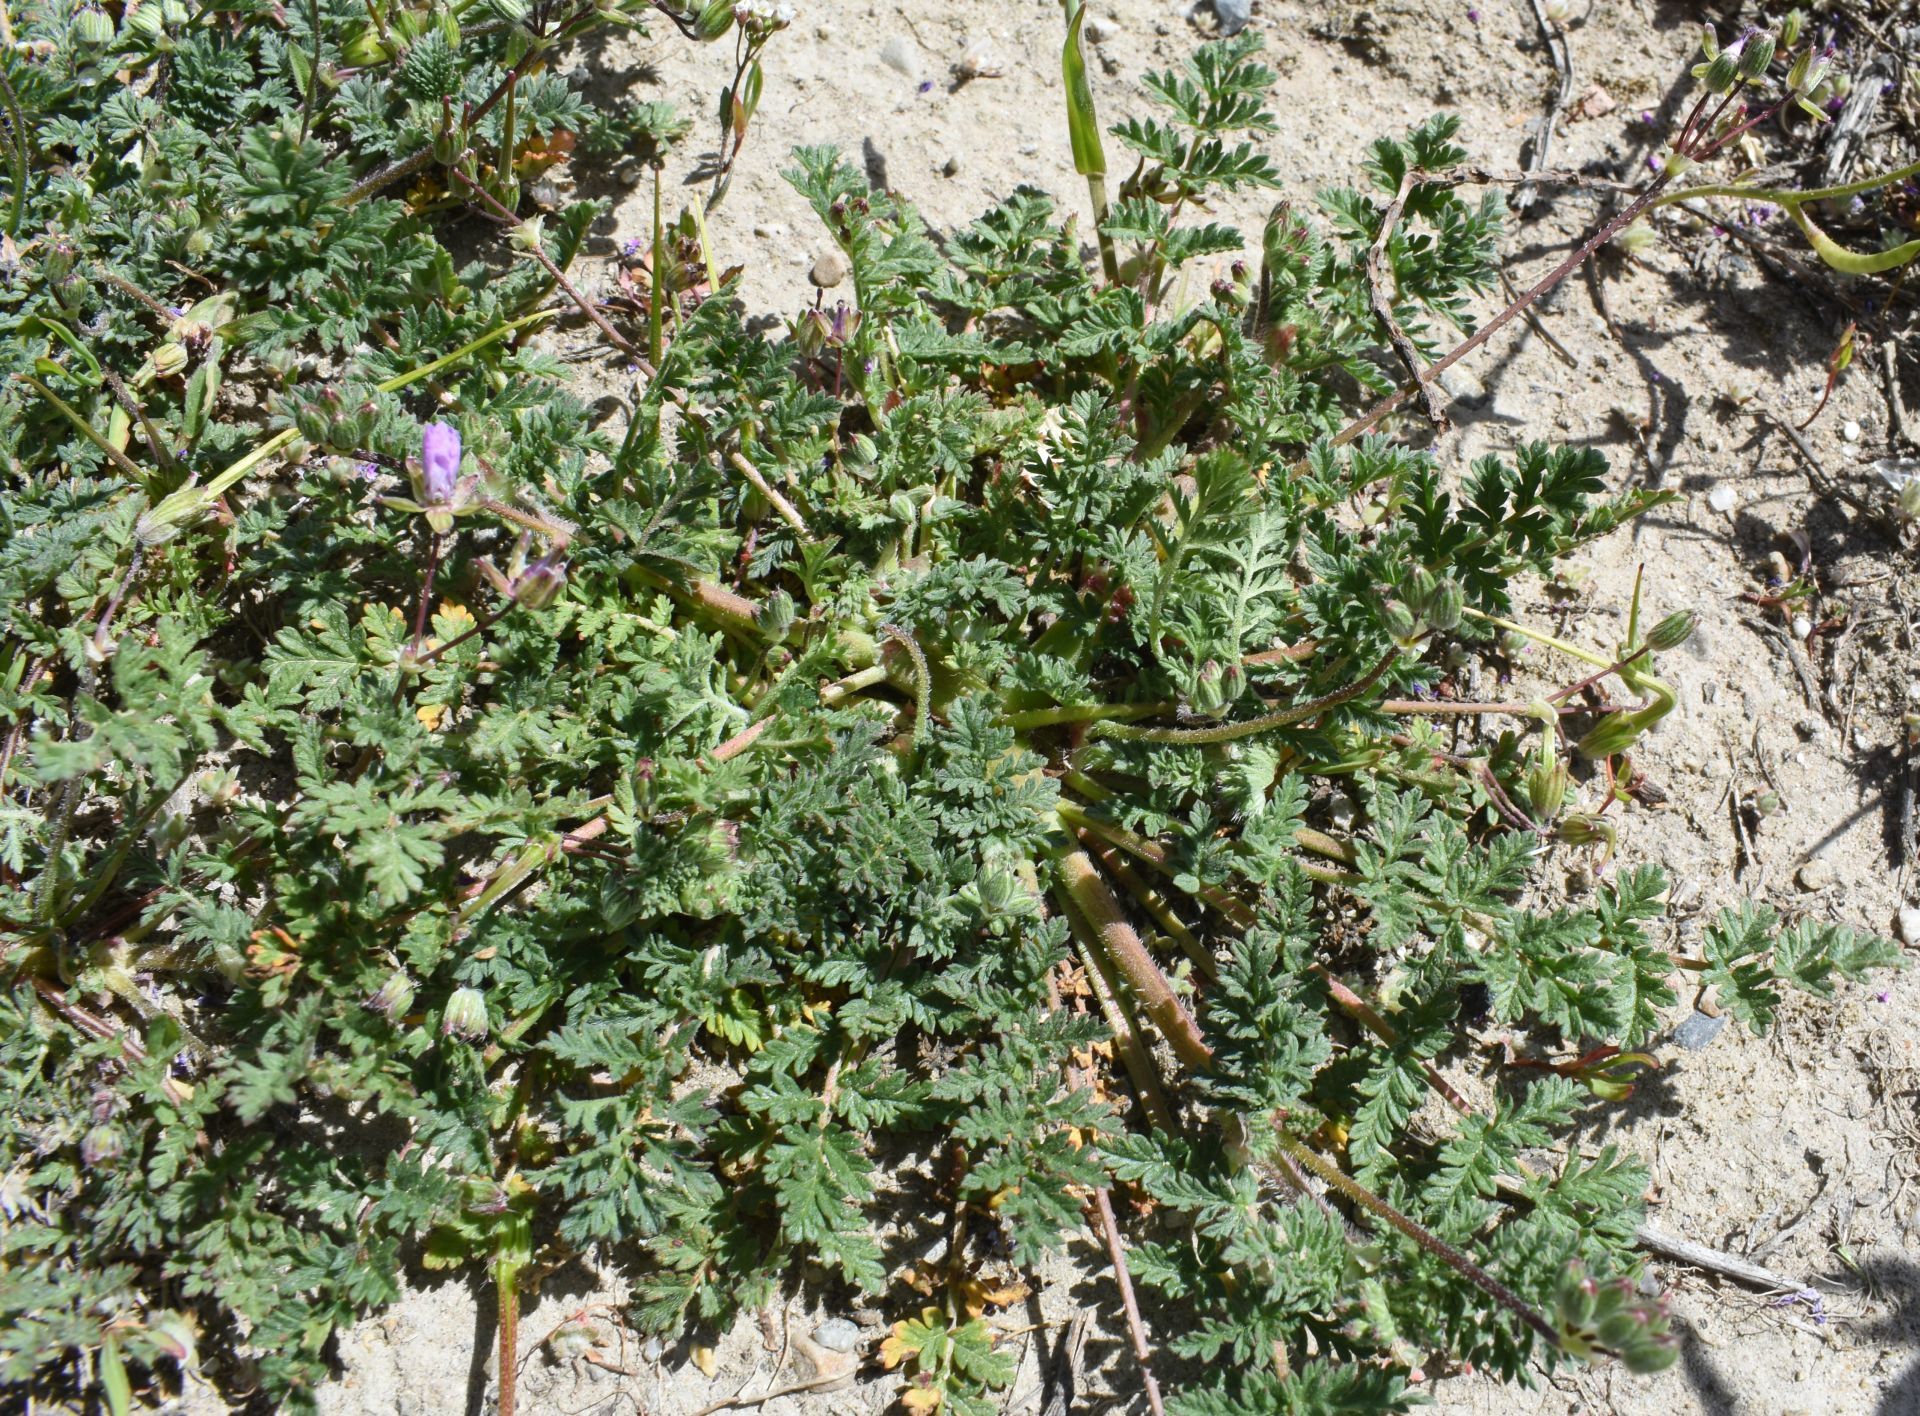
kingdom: Plantae
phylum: Tracheophyta
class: Magnoliopsida
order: Geraniales
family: Geraniaceae
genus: Erodium
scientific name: Erodium cicutarium
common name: Common stork's-bill
